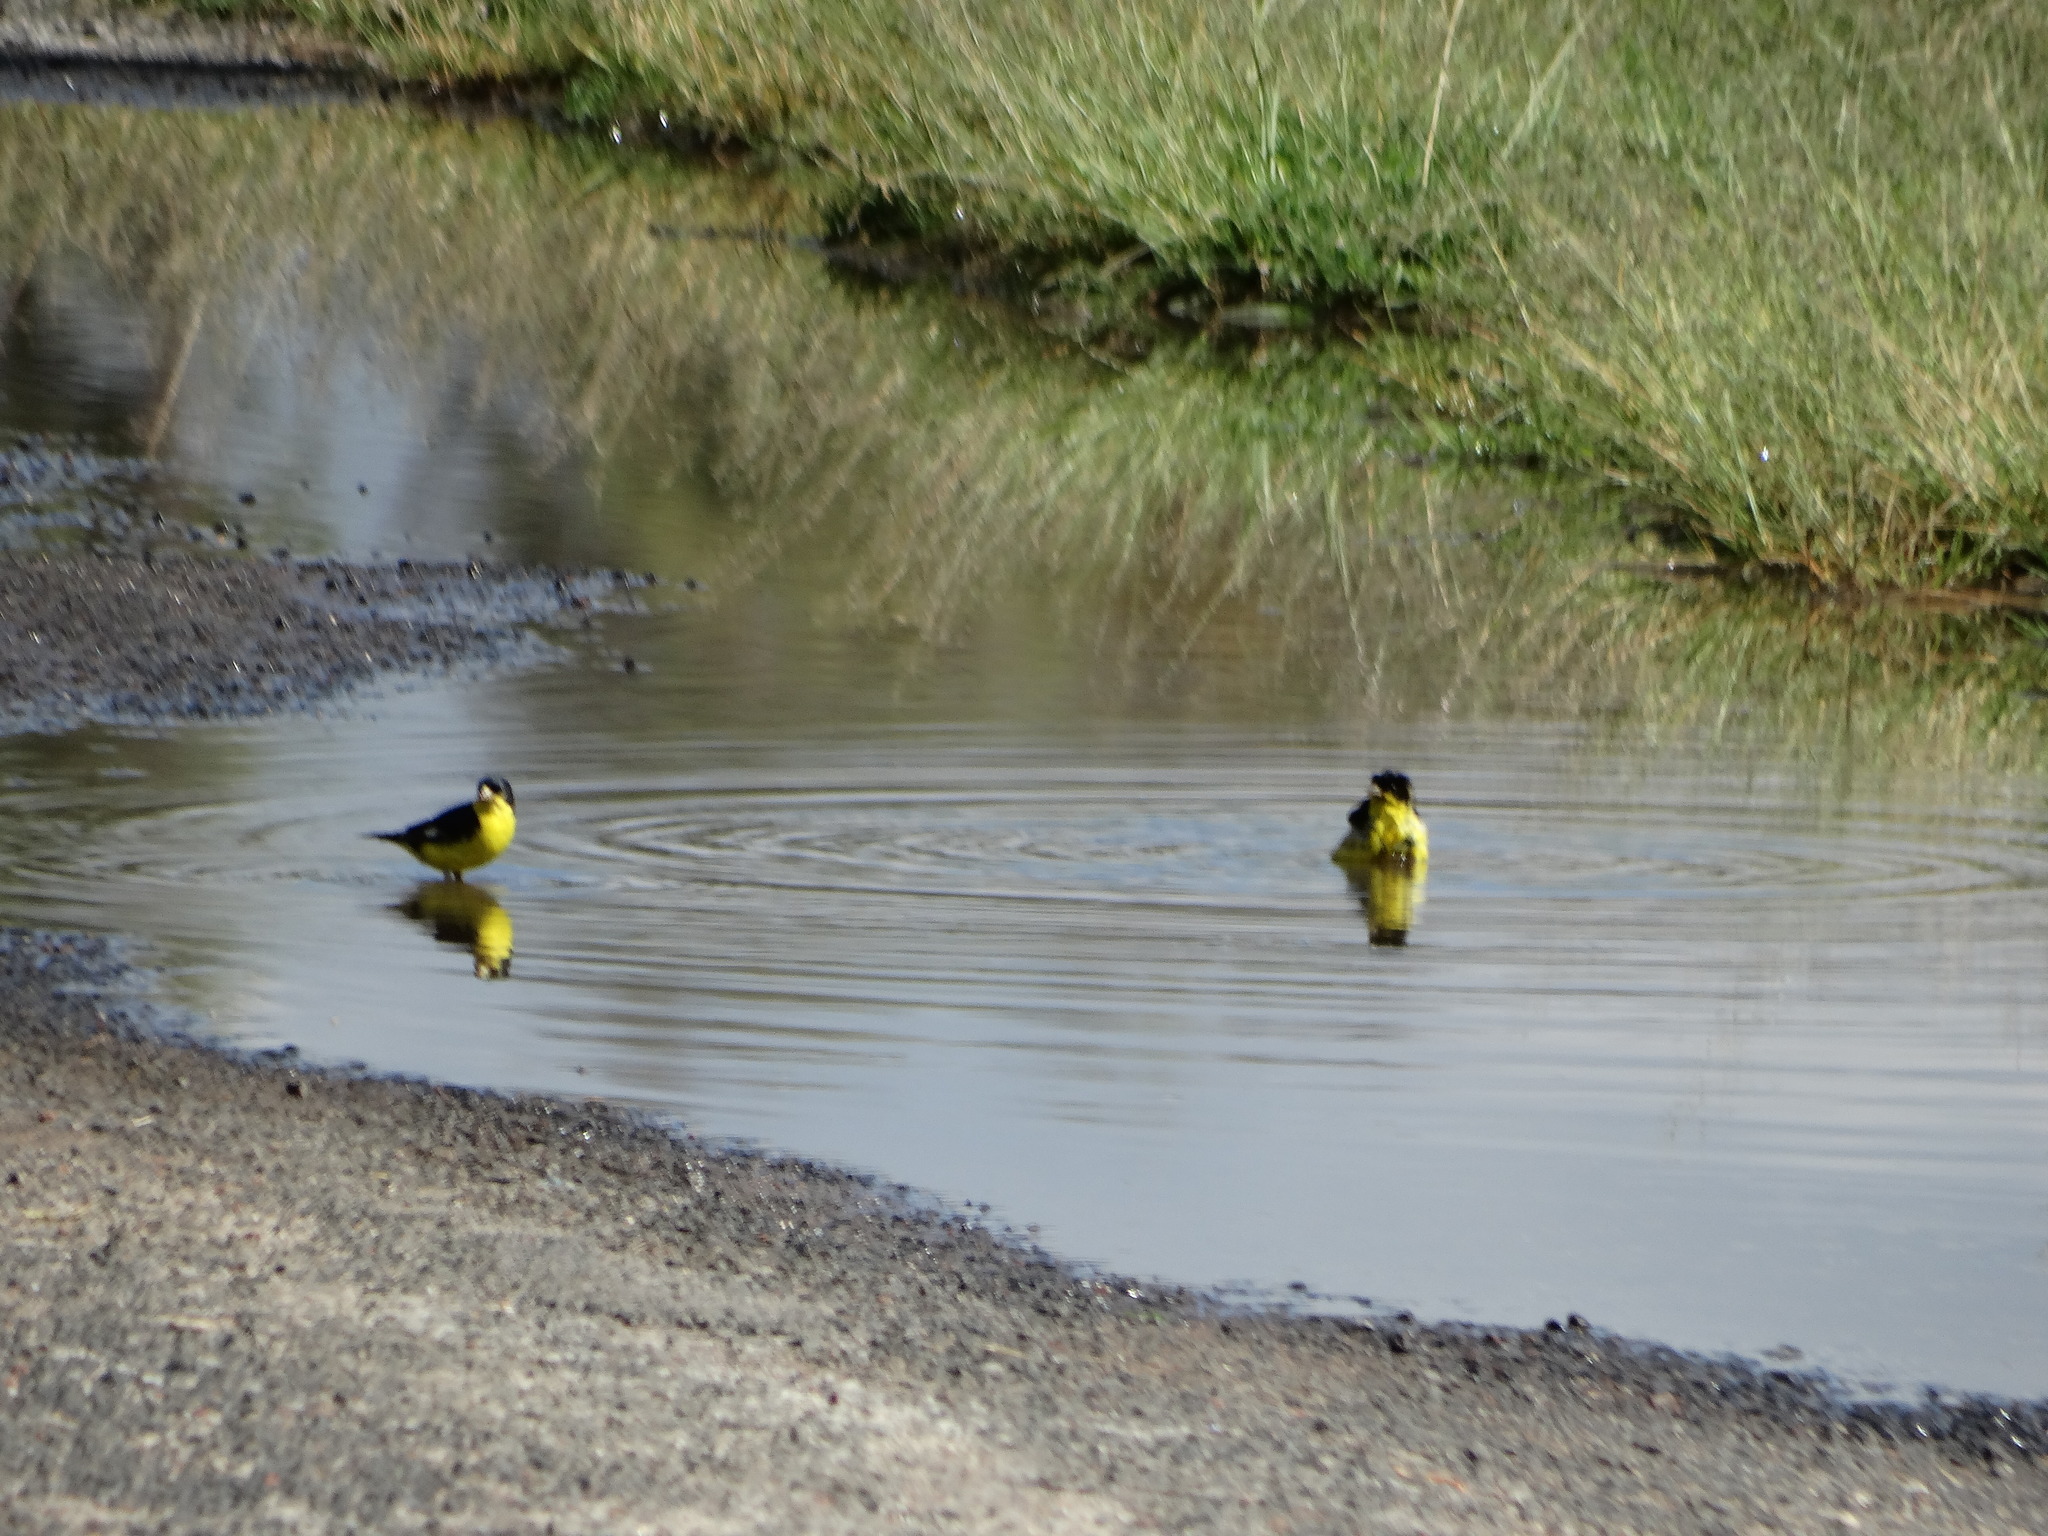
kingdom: Animalia
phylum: Chordata
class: Aves
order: Passeriformes
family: Fringillidae
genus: Spinus
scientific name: Spinus psaltria
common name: Lesser goldfinch
